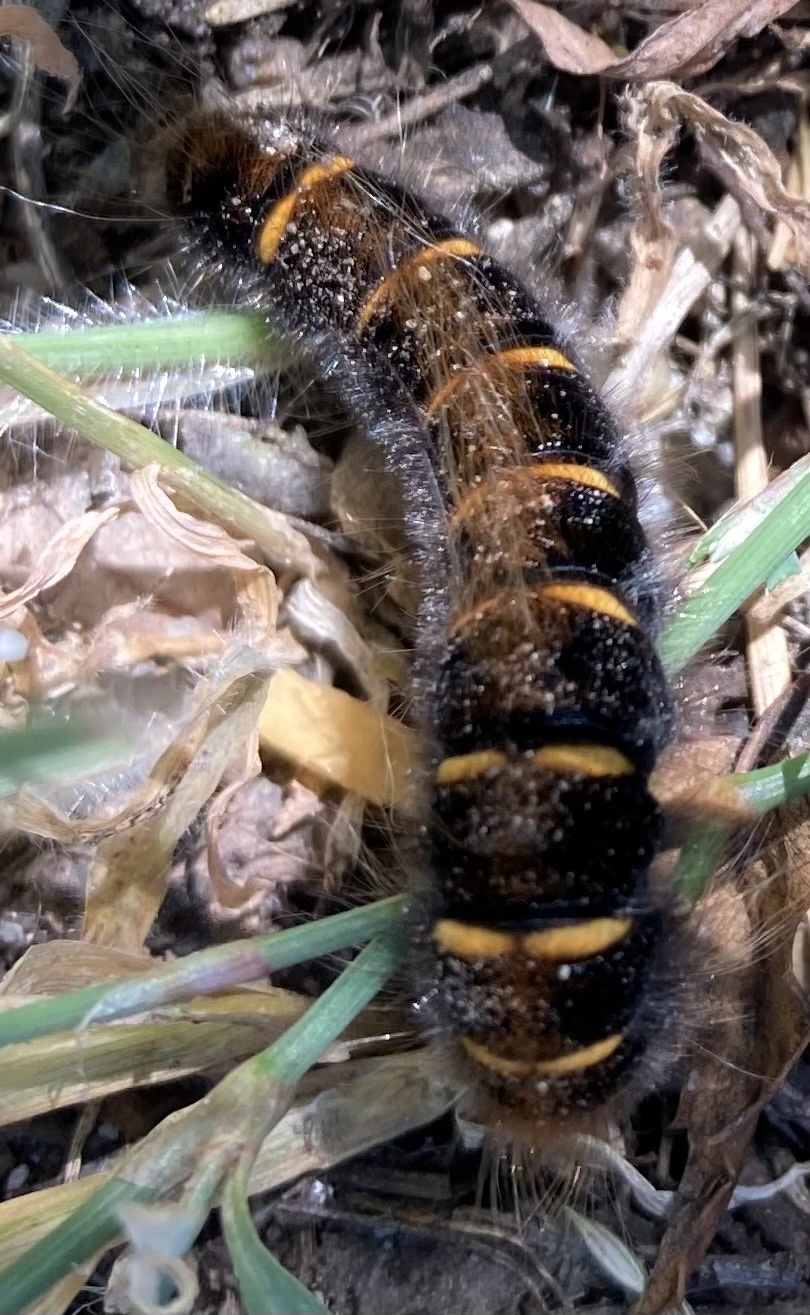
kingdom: Animalia
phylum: Arthropoda
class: Insecta
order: Lepidoptera
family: Lasiocampidae
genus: Macrothylacia
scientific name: Macrothylacia rubi
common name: Fox moth
